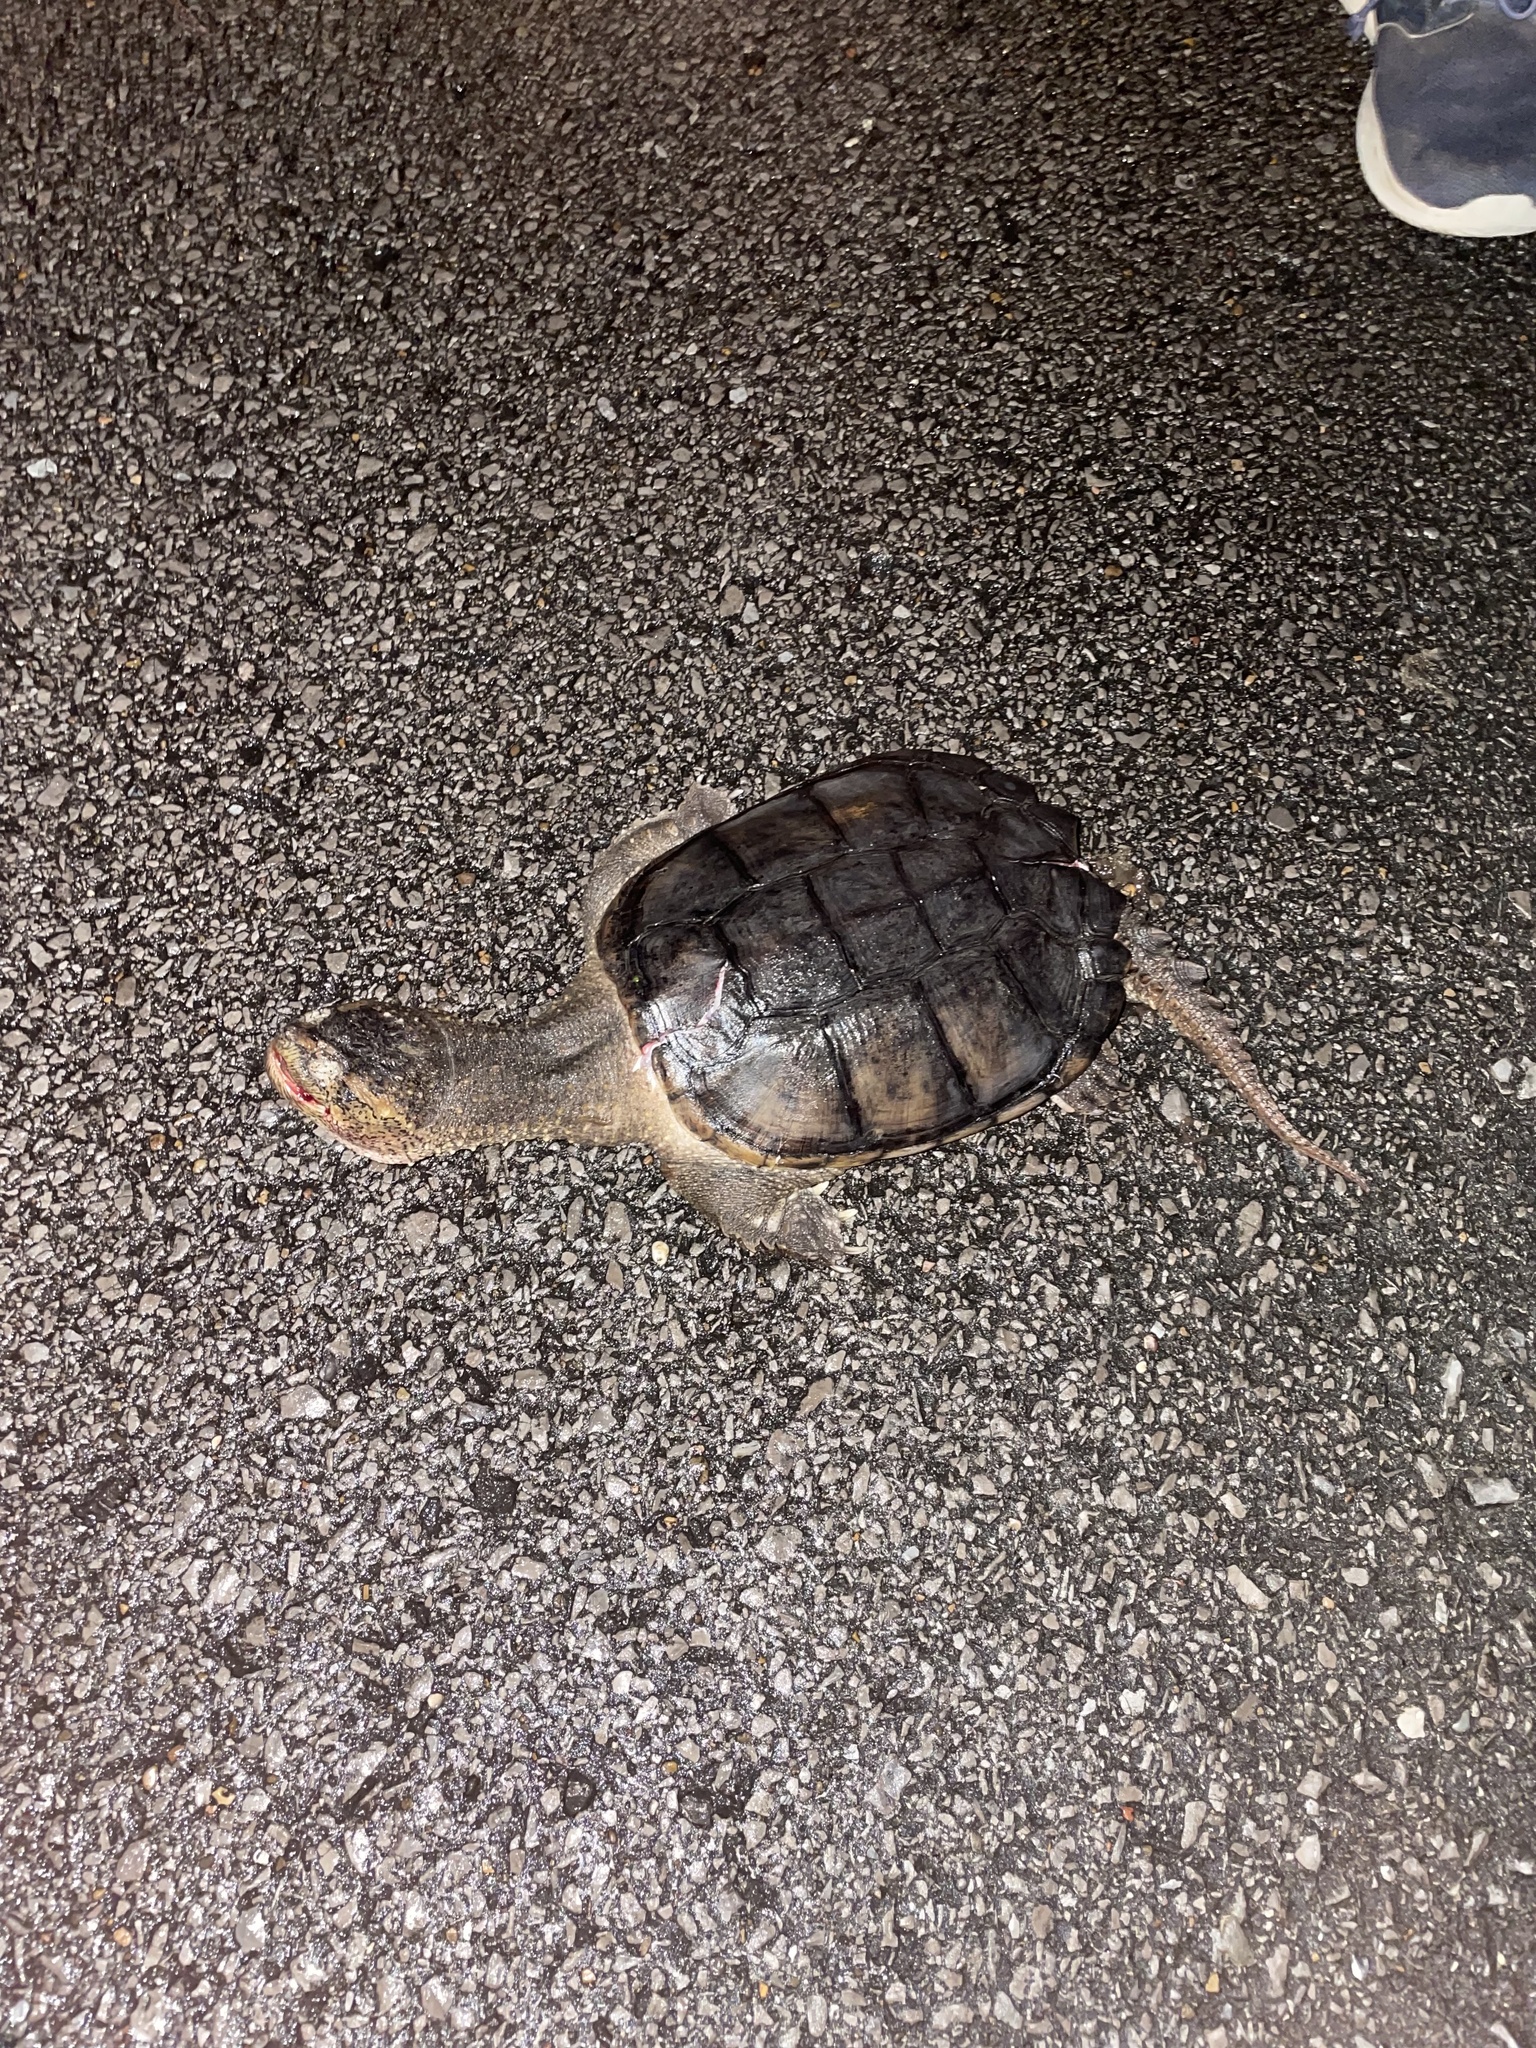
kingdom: Animalia
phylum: Chordata
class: Testudines
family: Chelydridae
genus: Chelydra
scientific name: Chelydra serpentina
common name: Common snapping turtle
